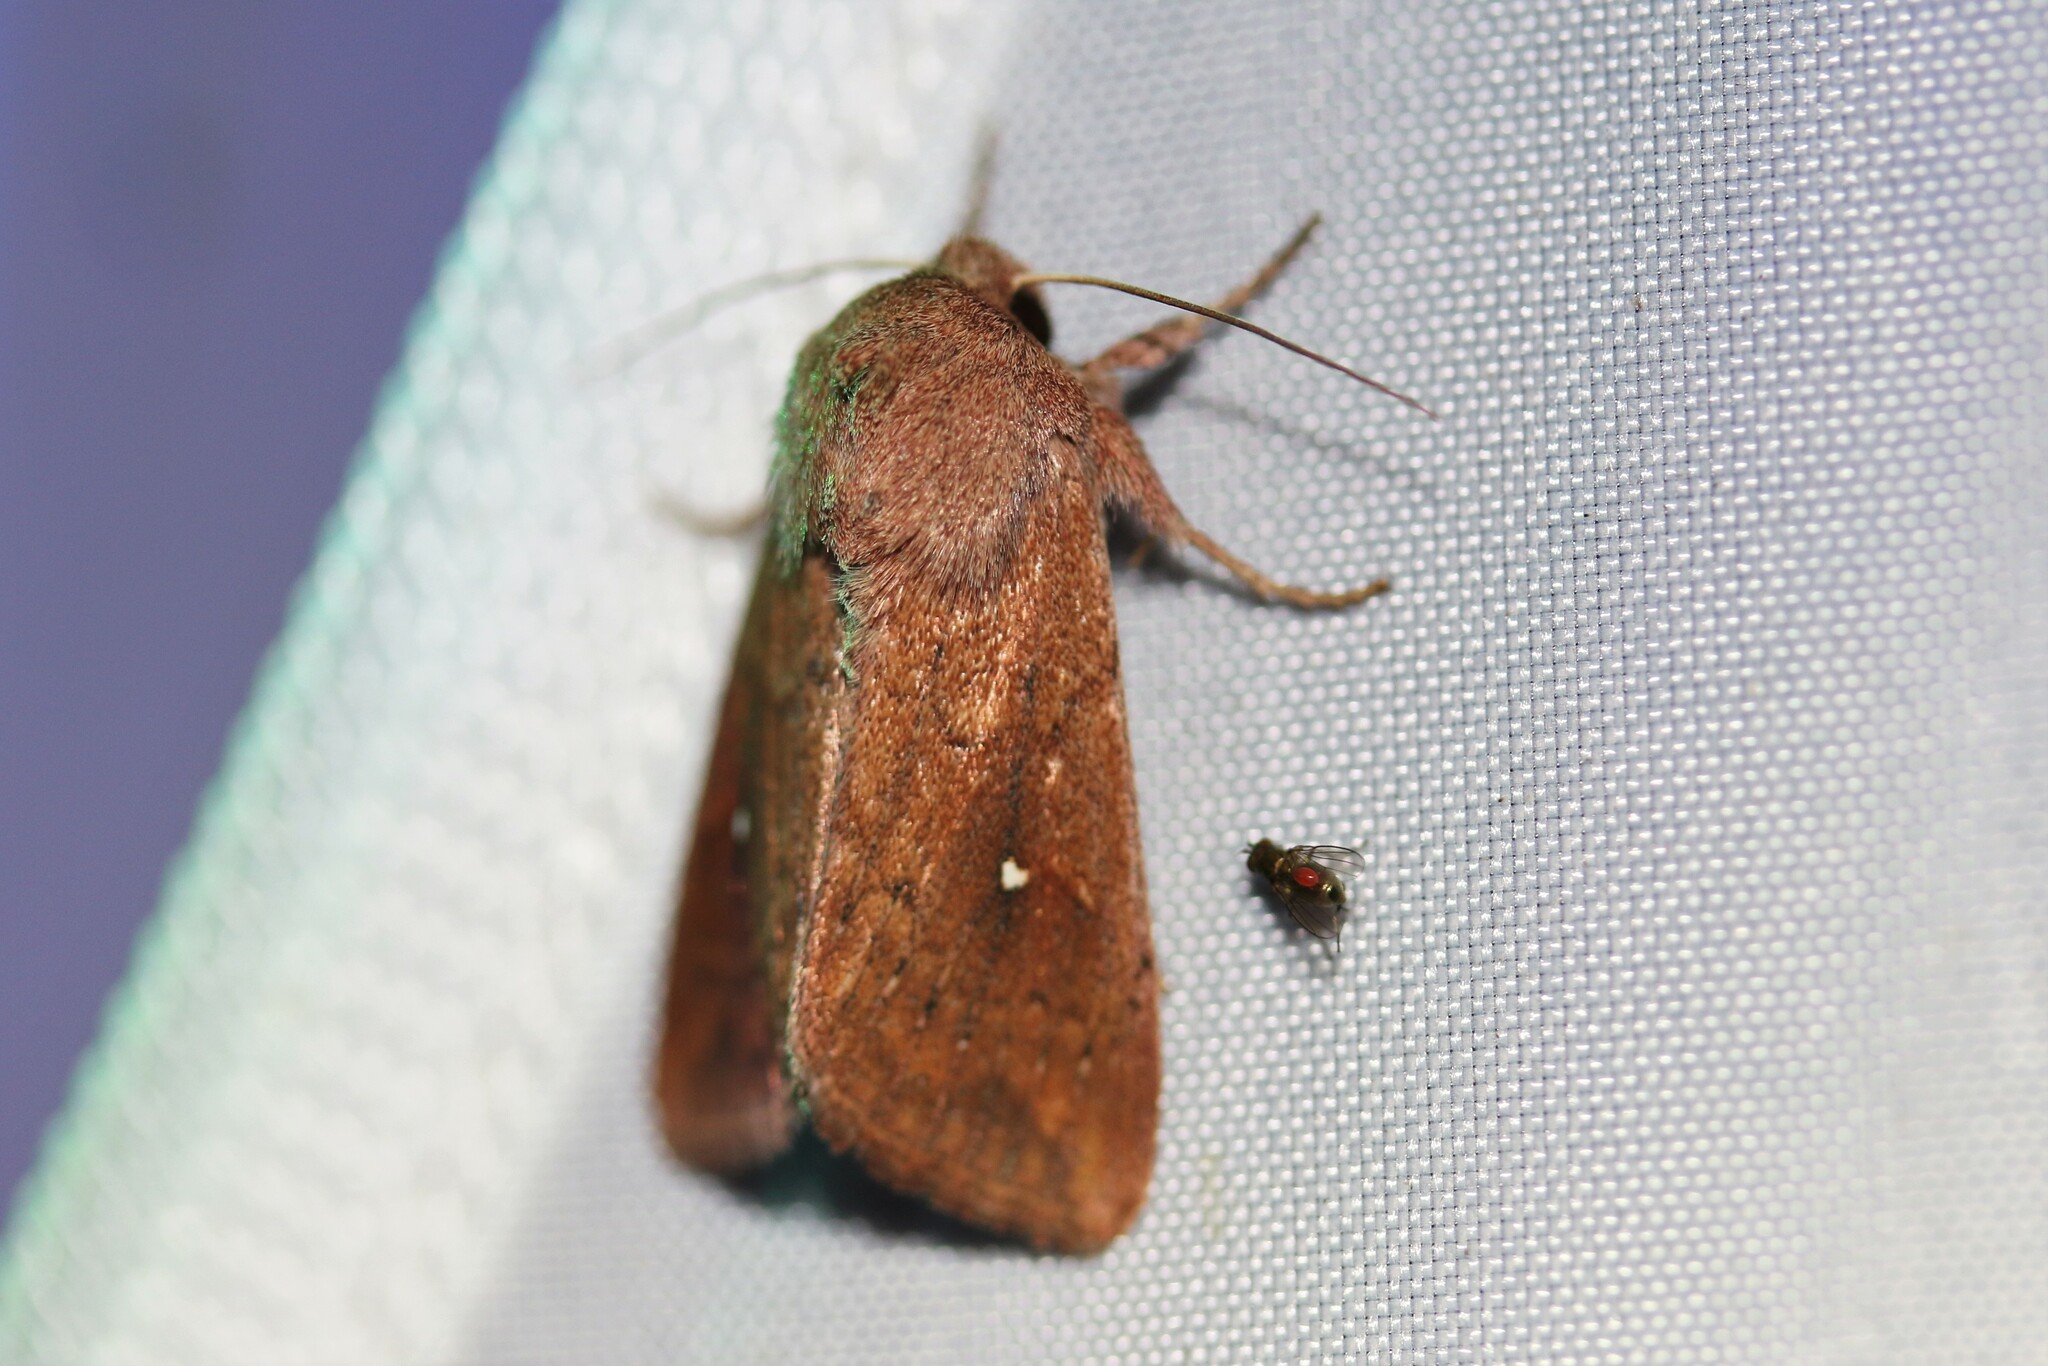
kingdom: Animalia
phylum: Arthropoda
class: Insecta
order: Lepidoptera
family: Noctuidae
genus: Mythimna
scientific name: Mythimna albipuncta
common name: White-point
